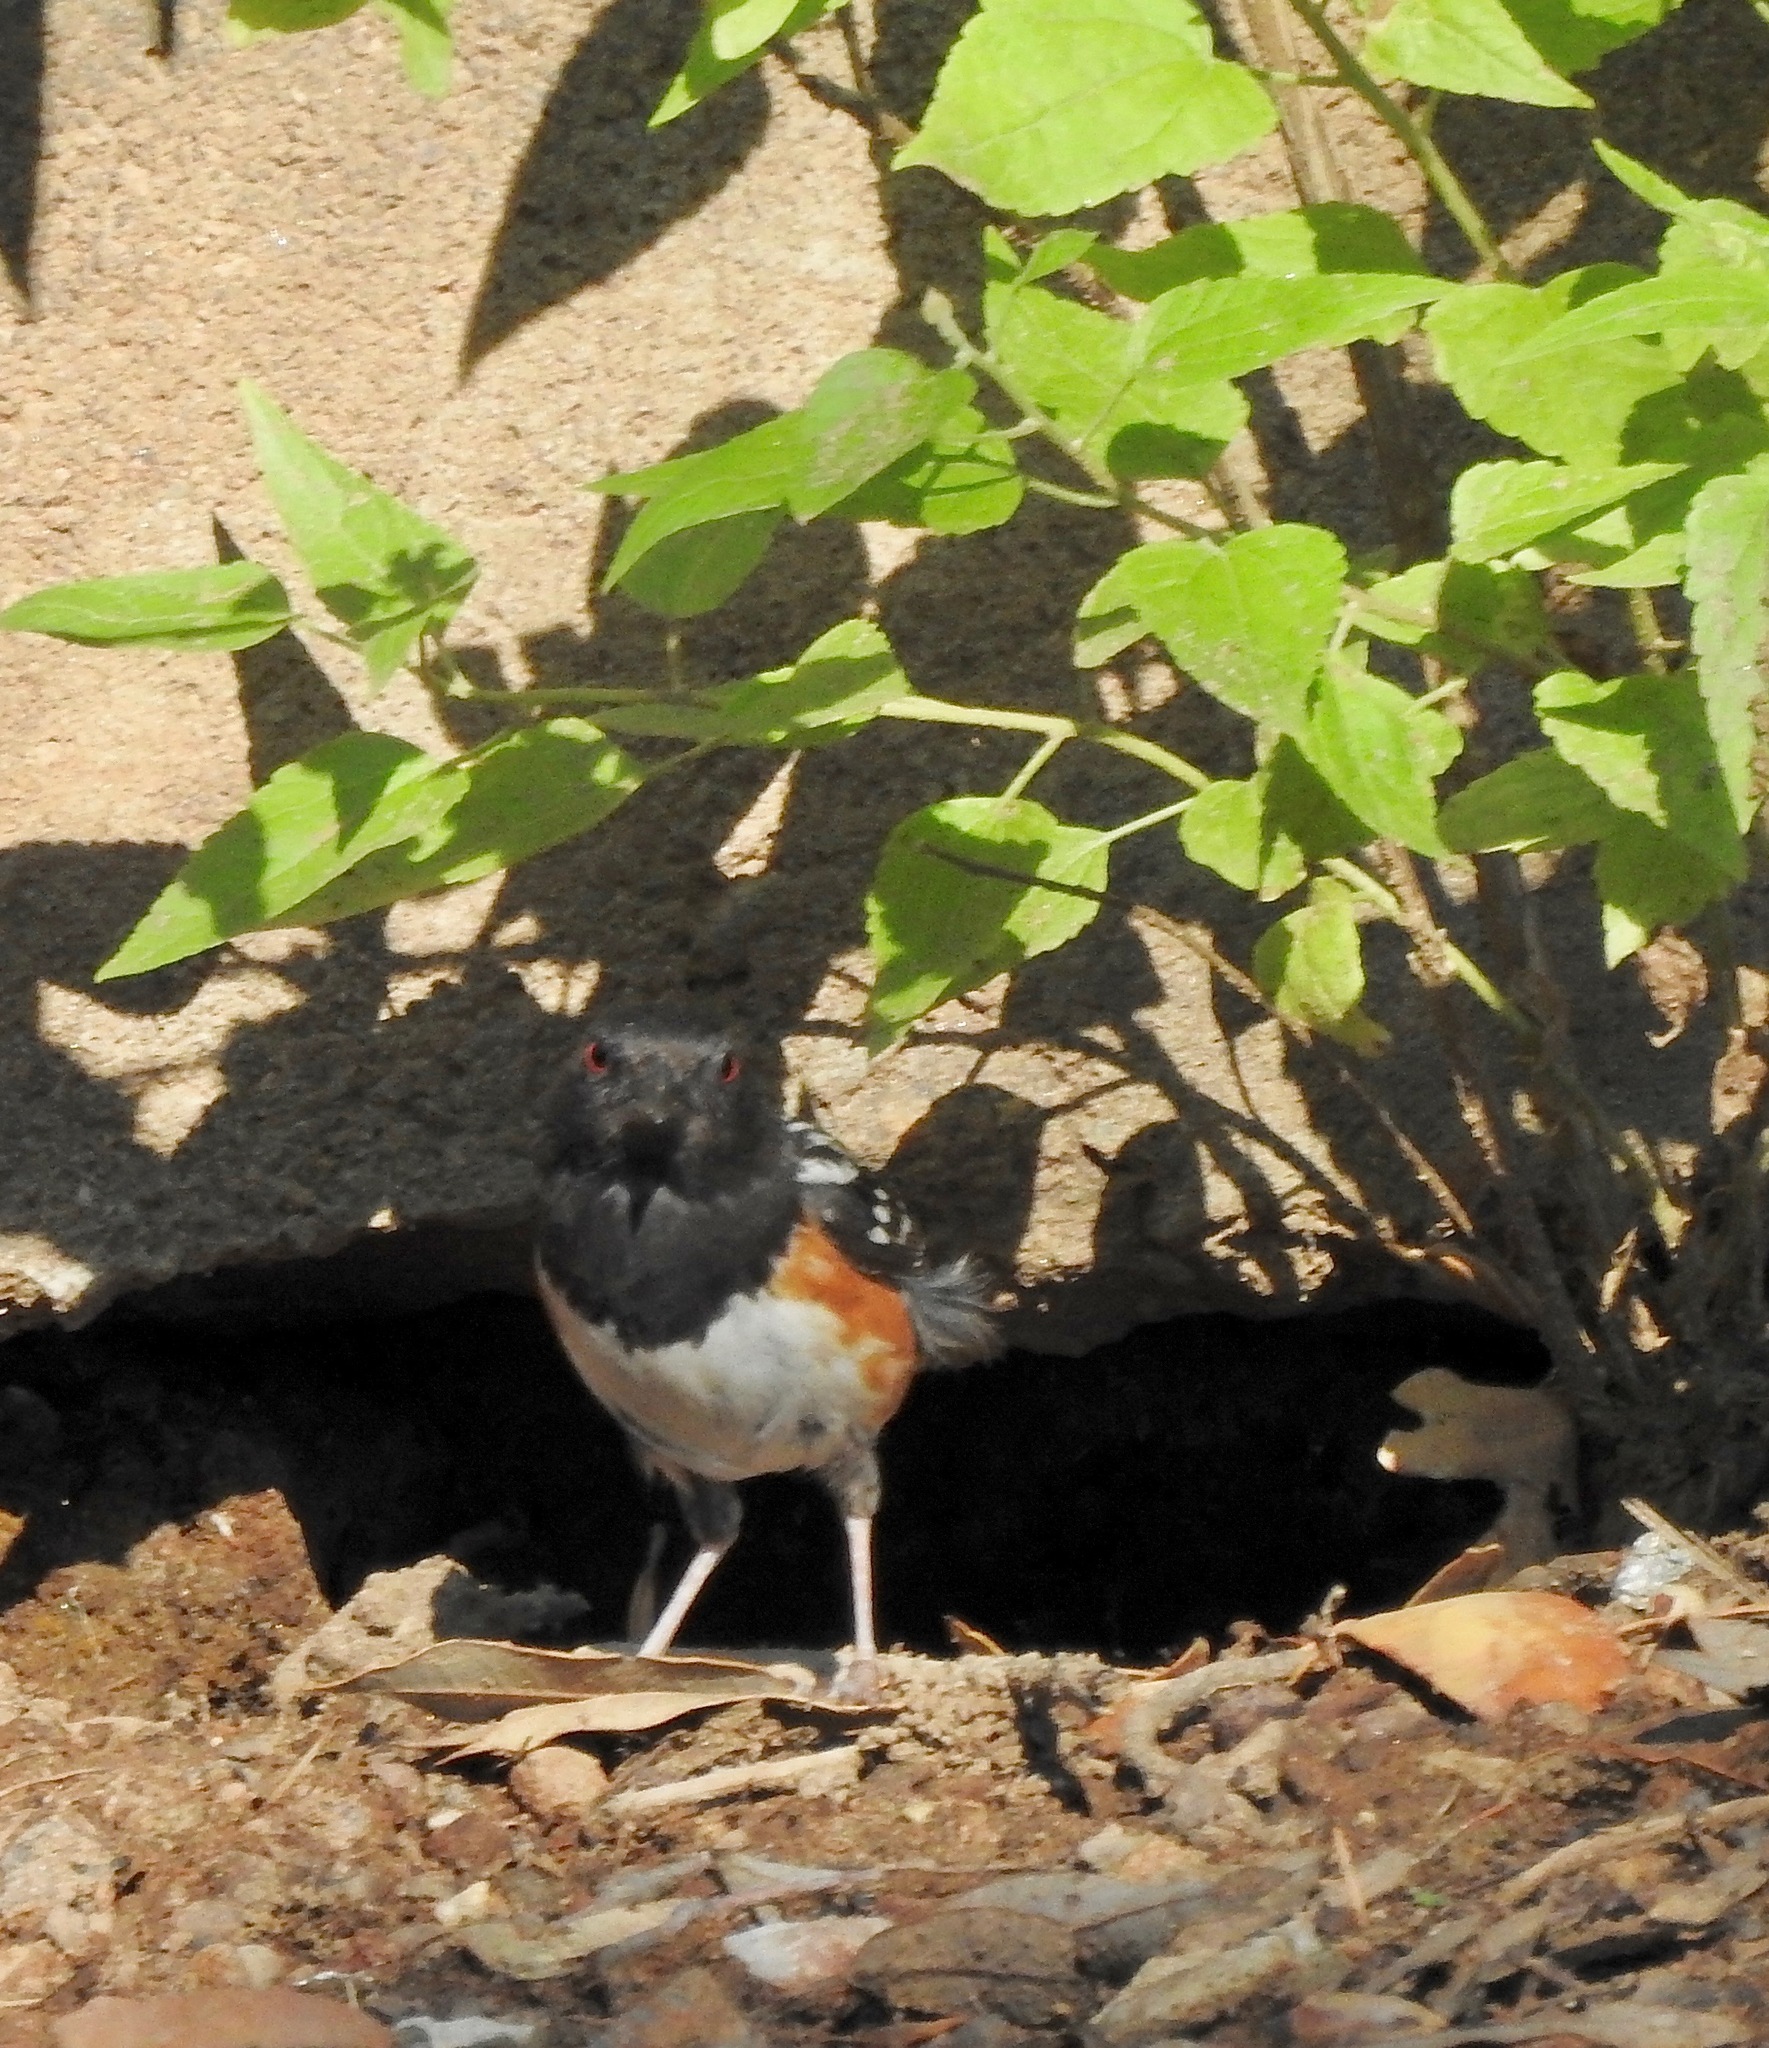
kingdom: Animalia
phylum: Chordata
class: Aves
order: Passeriformes
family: Passerellidae
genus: Pipilo
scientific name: Pipilo maculatus
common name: Spotted towhee
